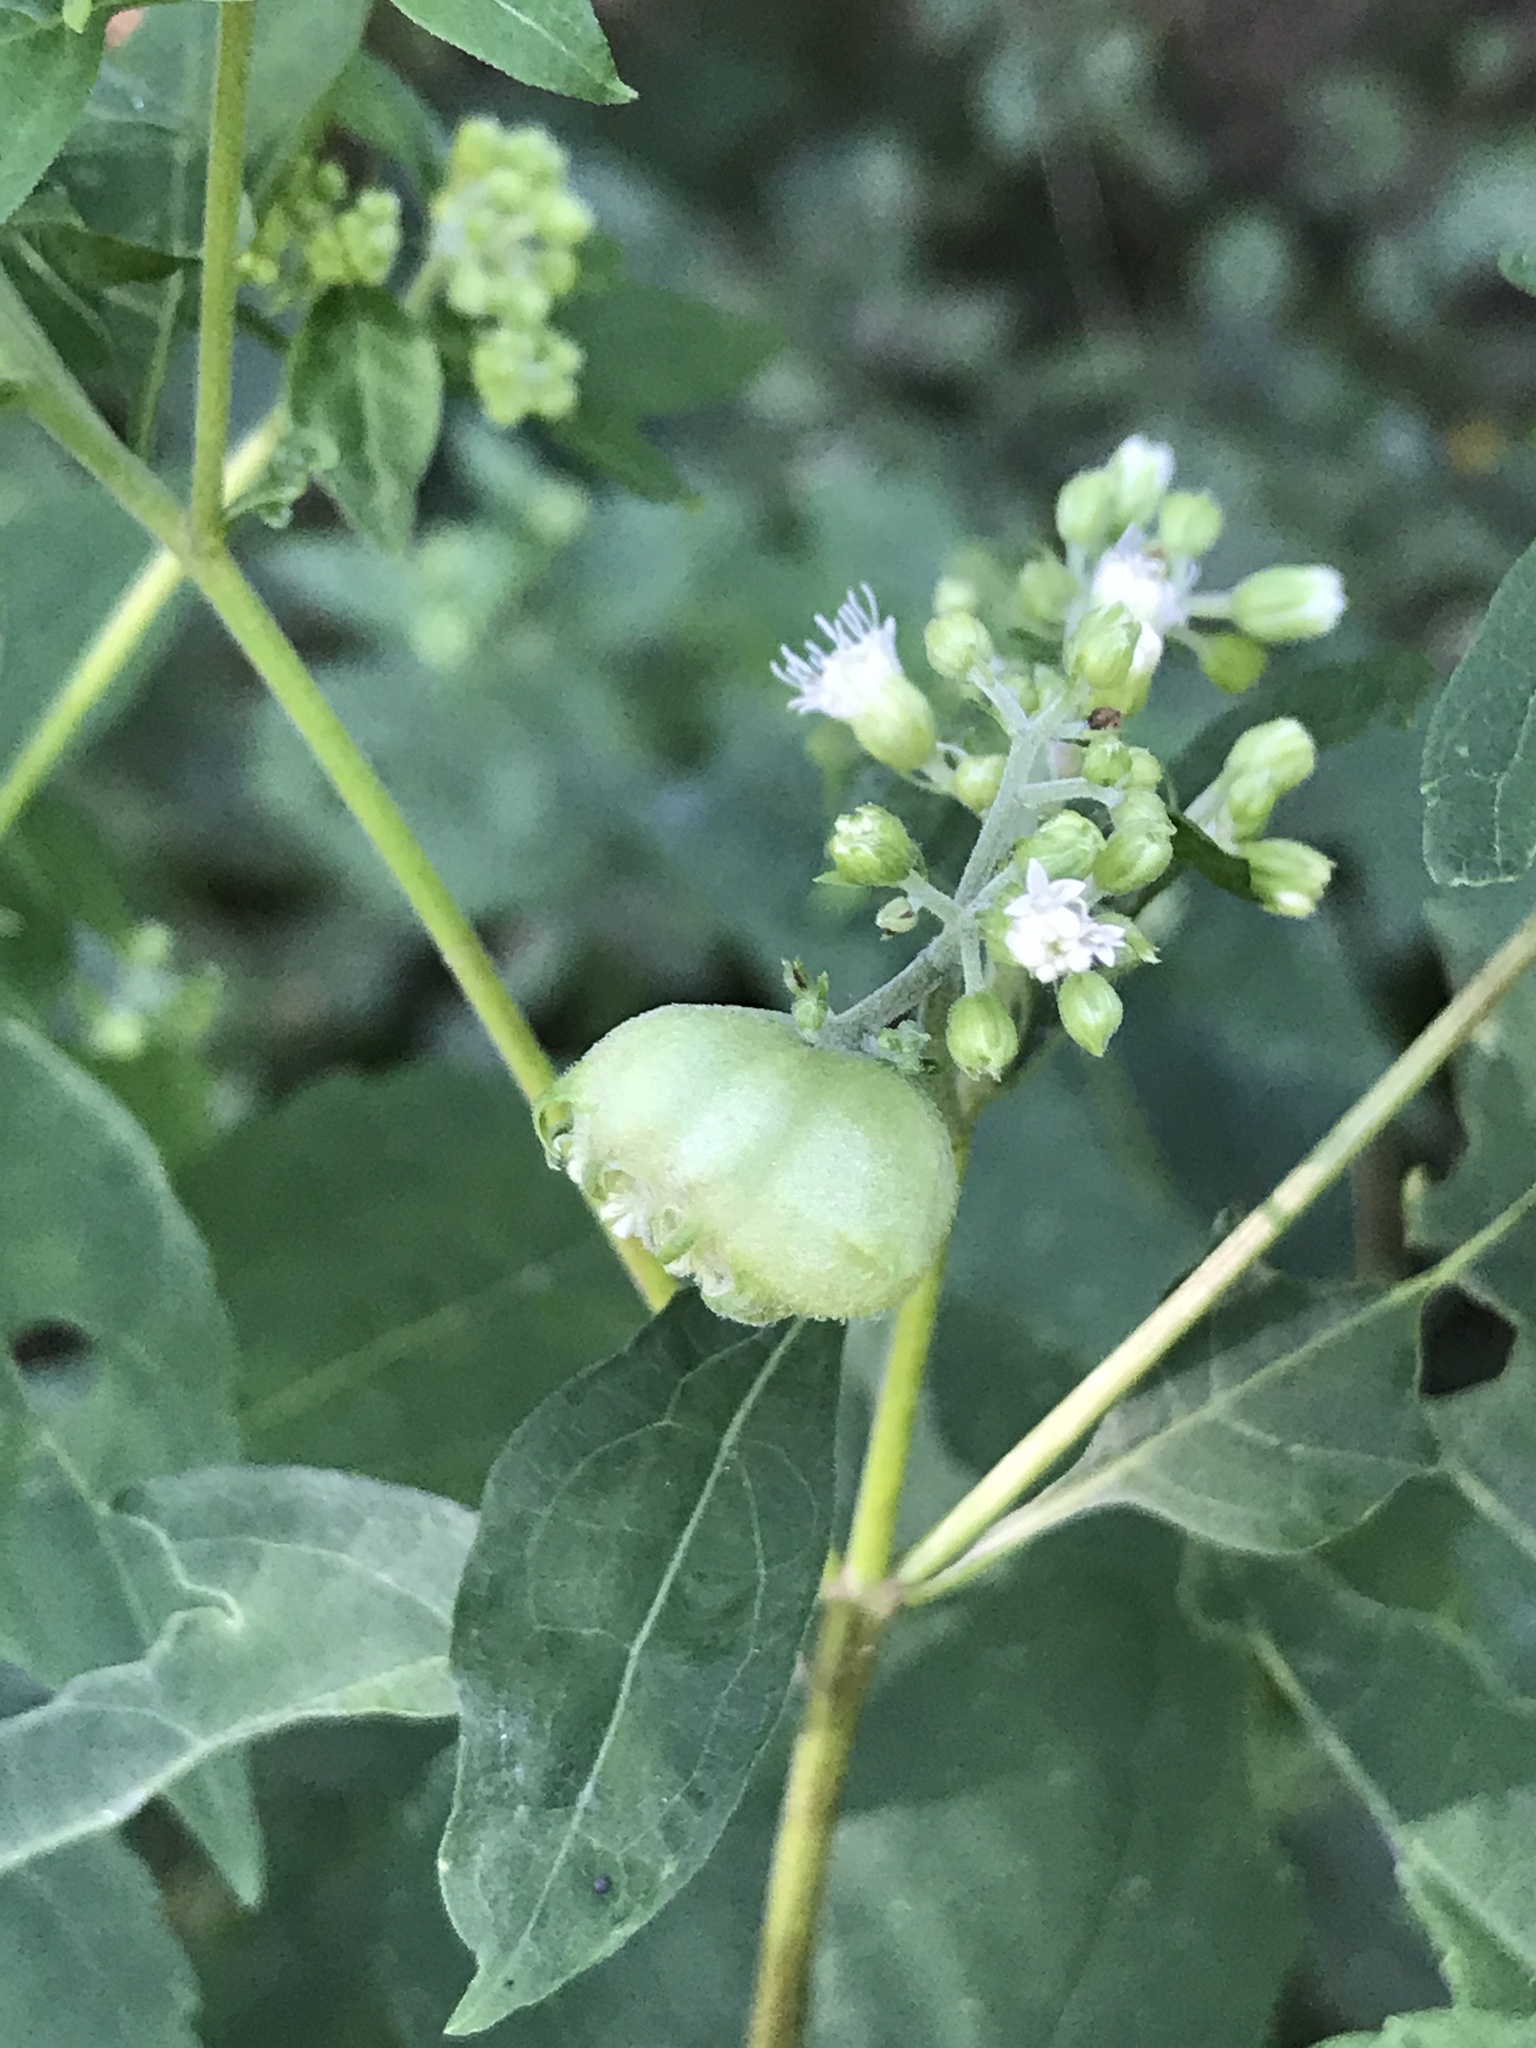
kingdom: Animalia
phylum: Arthropoda
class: Insecta
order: Diptera
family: Cecidomyiidae
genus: Schizomyia
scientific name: Schizomyia eupatoriflorae
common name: Boneset flower gall midge
